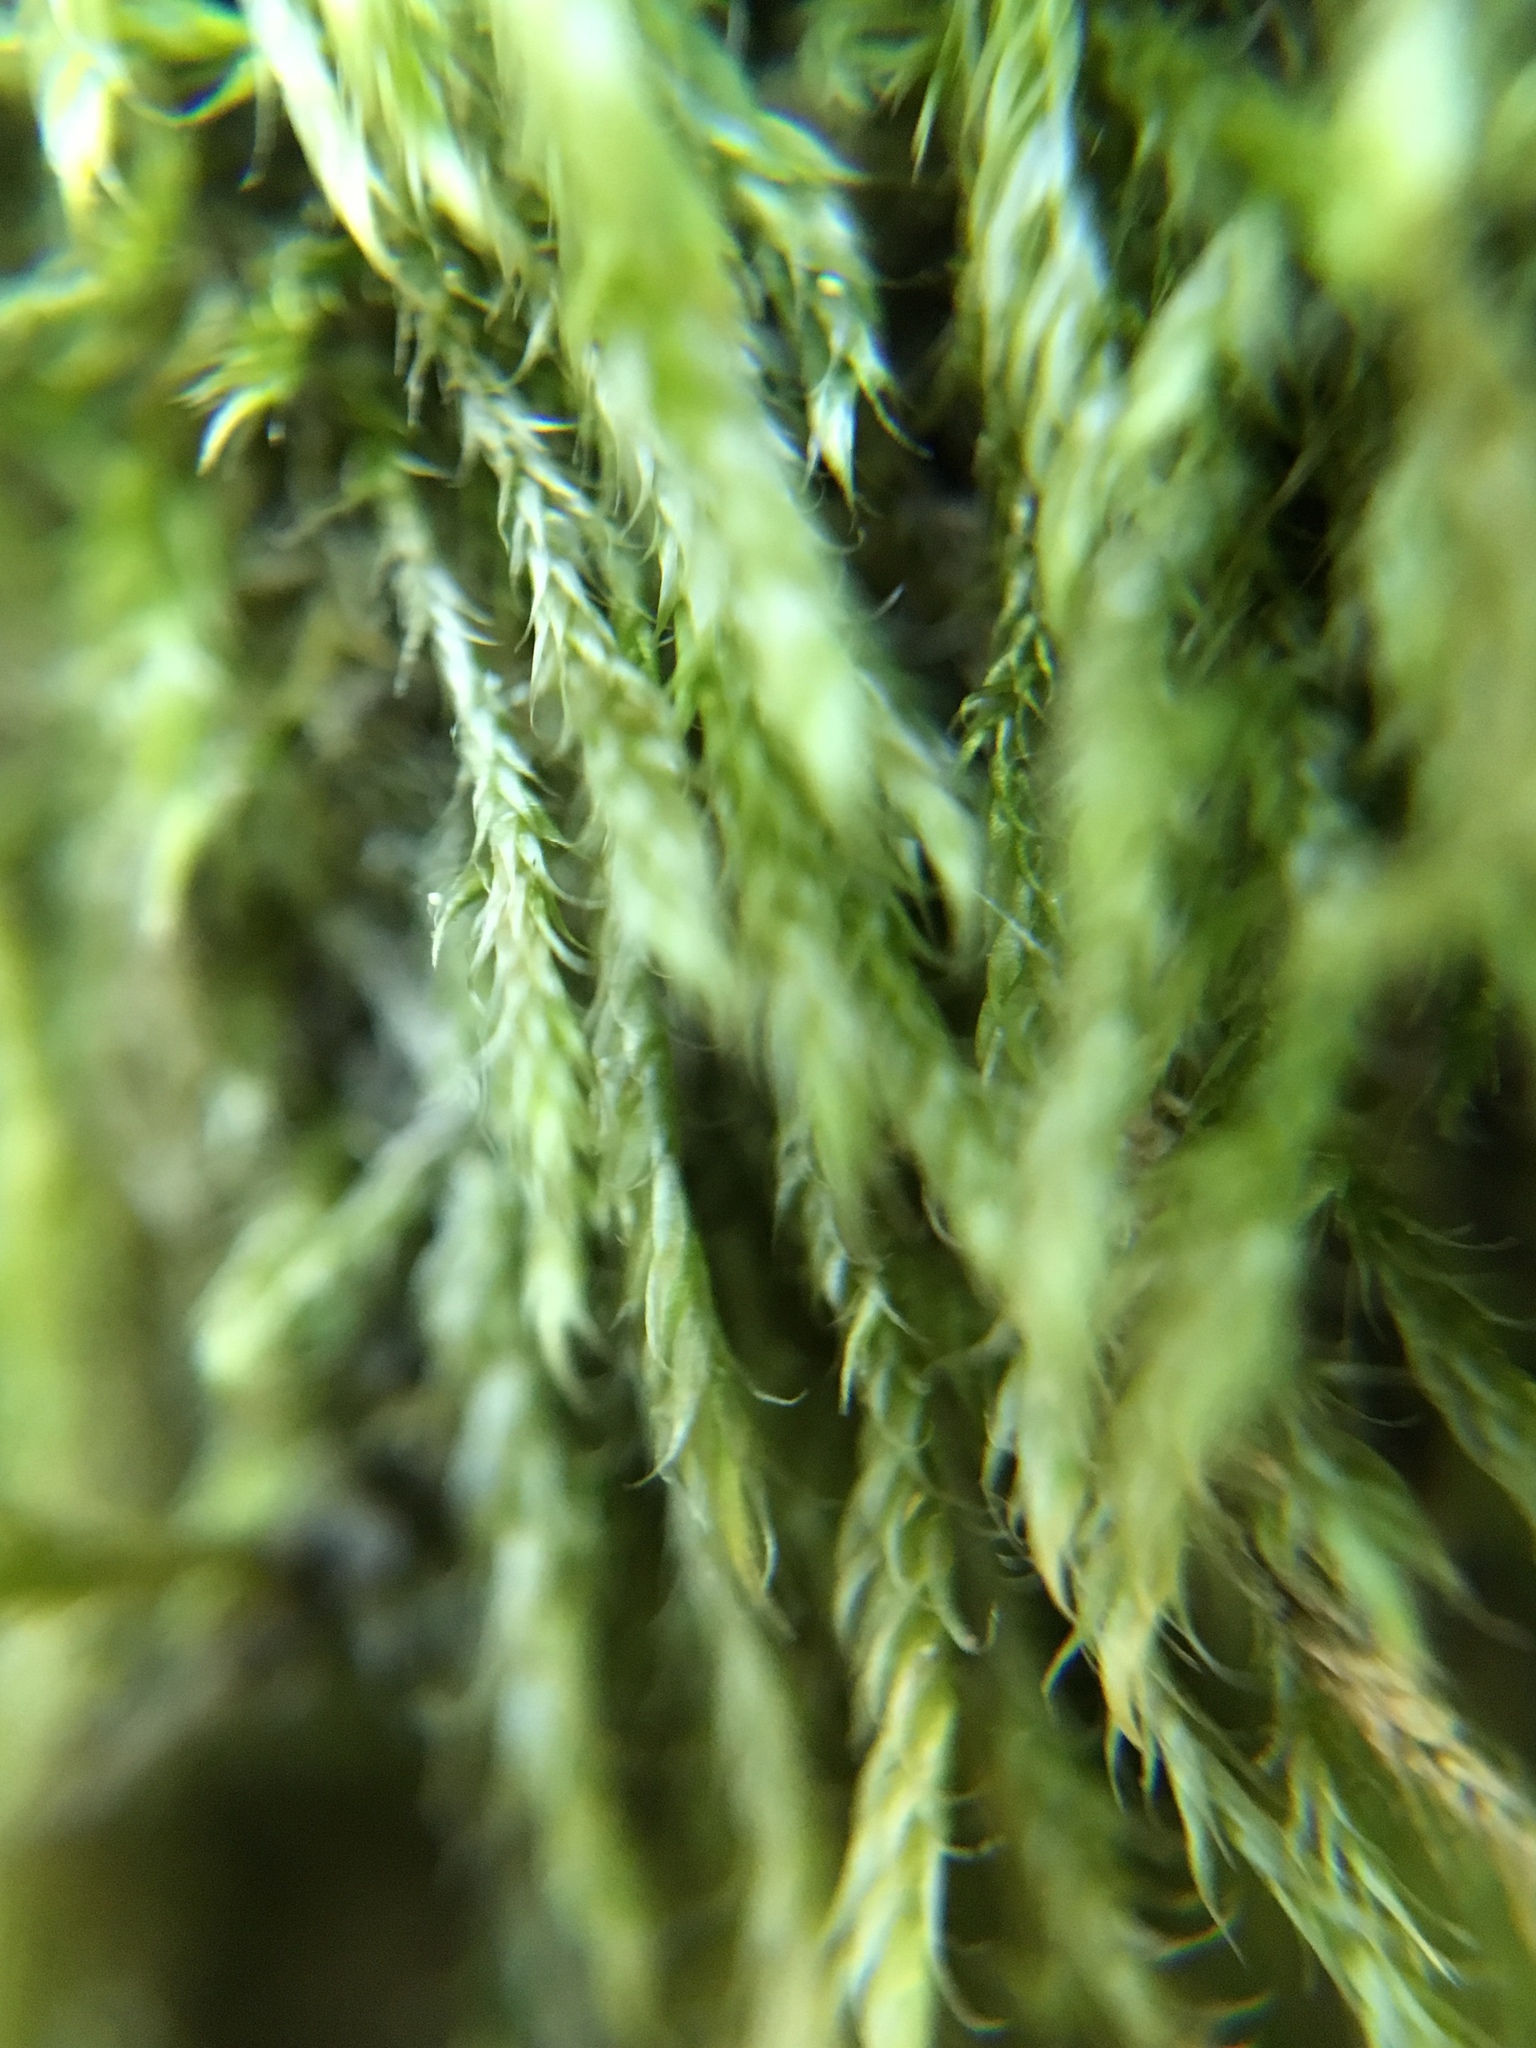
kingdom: Plantae
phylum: Bryophyta
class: Bryopsida
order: Hypnales
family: Hypnaceae
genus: Hypnum
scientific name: Hypnum cupressiforme
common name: Cypress-leaved plait-moss
